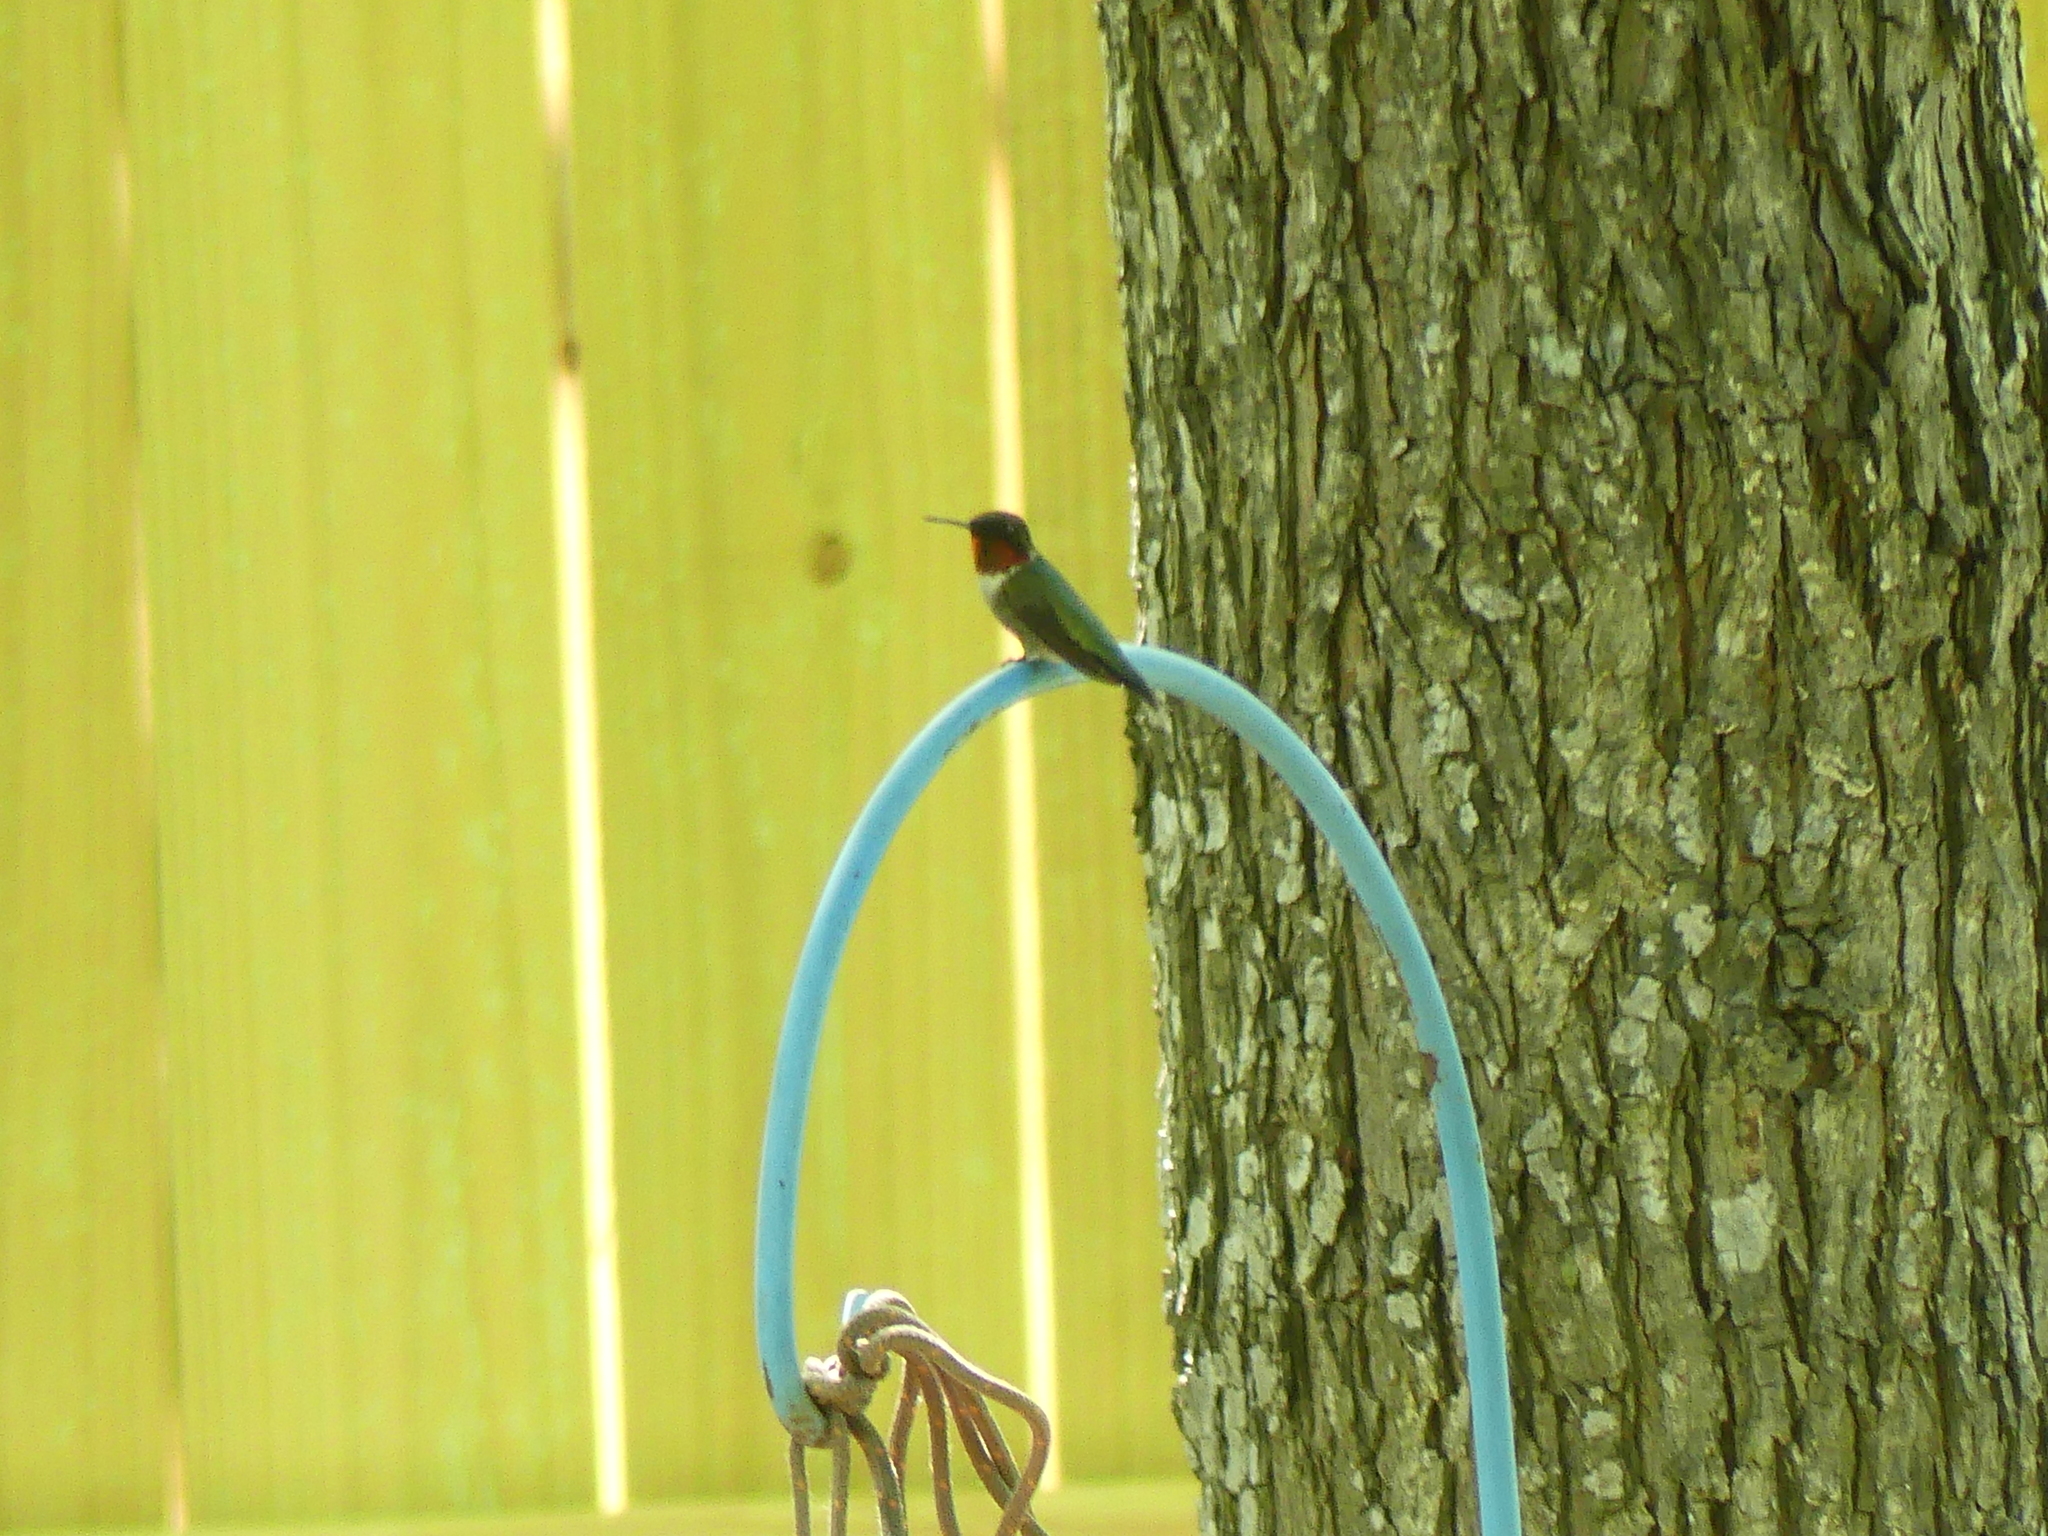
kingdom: Animalia
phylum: Chordata
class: Aves
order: Apodiformes
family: Trochilidae
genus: Archilochus
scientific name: Archilochus colubris
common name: Ruby-throated hummingbird
